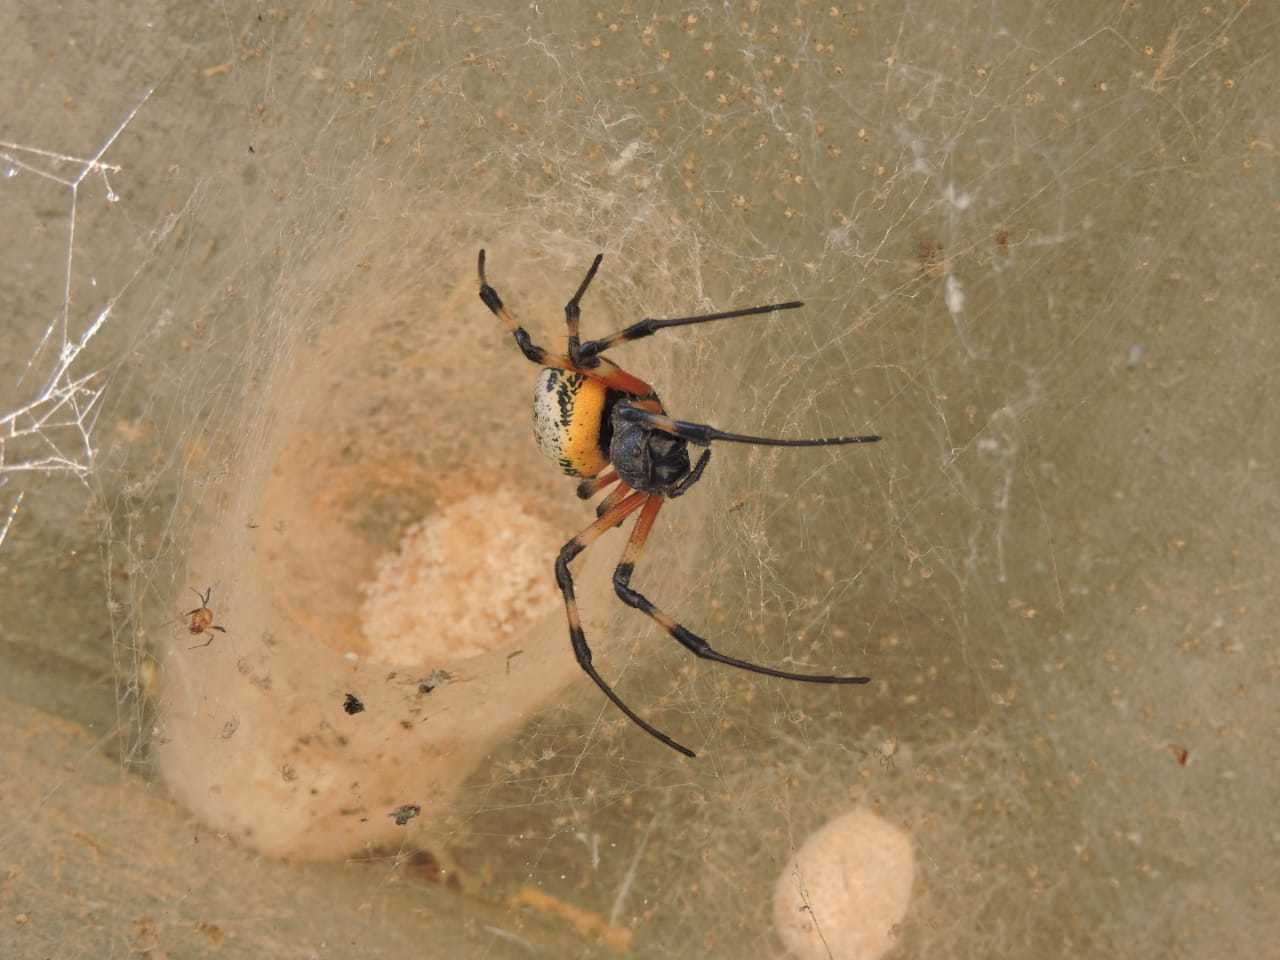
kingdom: Animalia
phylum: Arthropoda
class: Arachnida
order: Araneae
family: Araneidae
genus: Nephilingis
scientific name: Nephilingis cruentata
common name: African hermit spider
